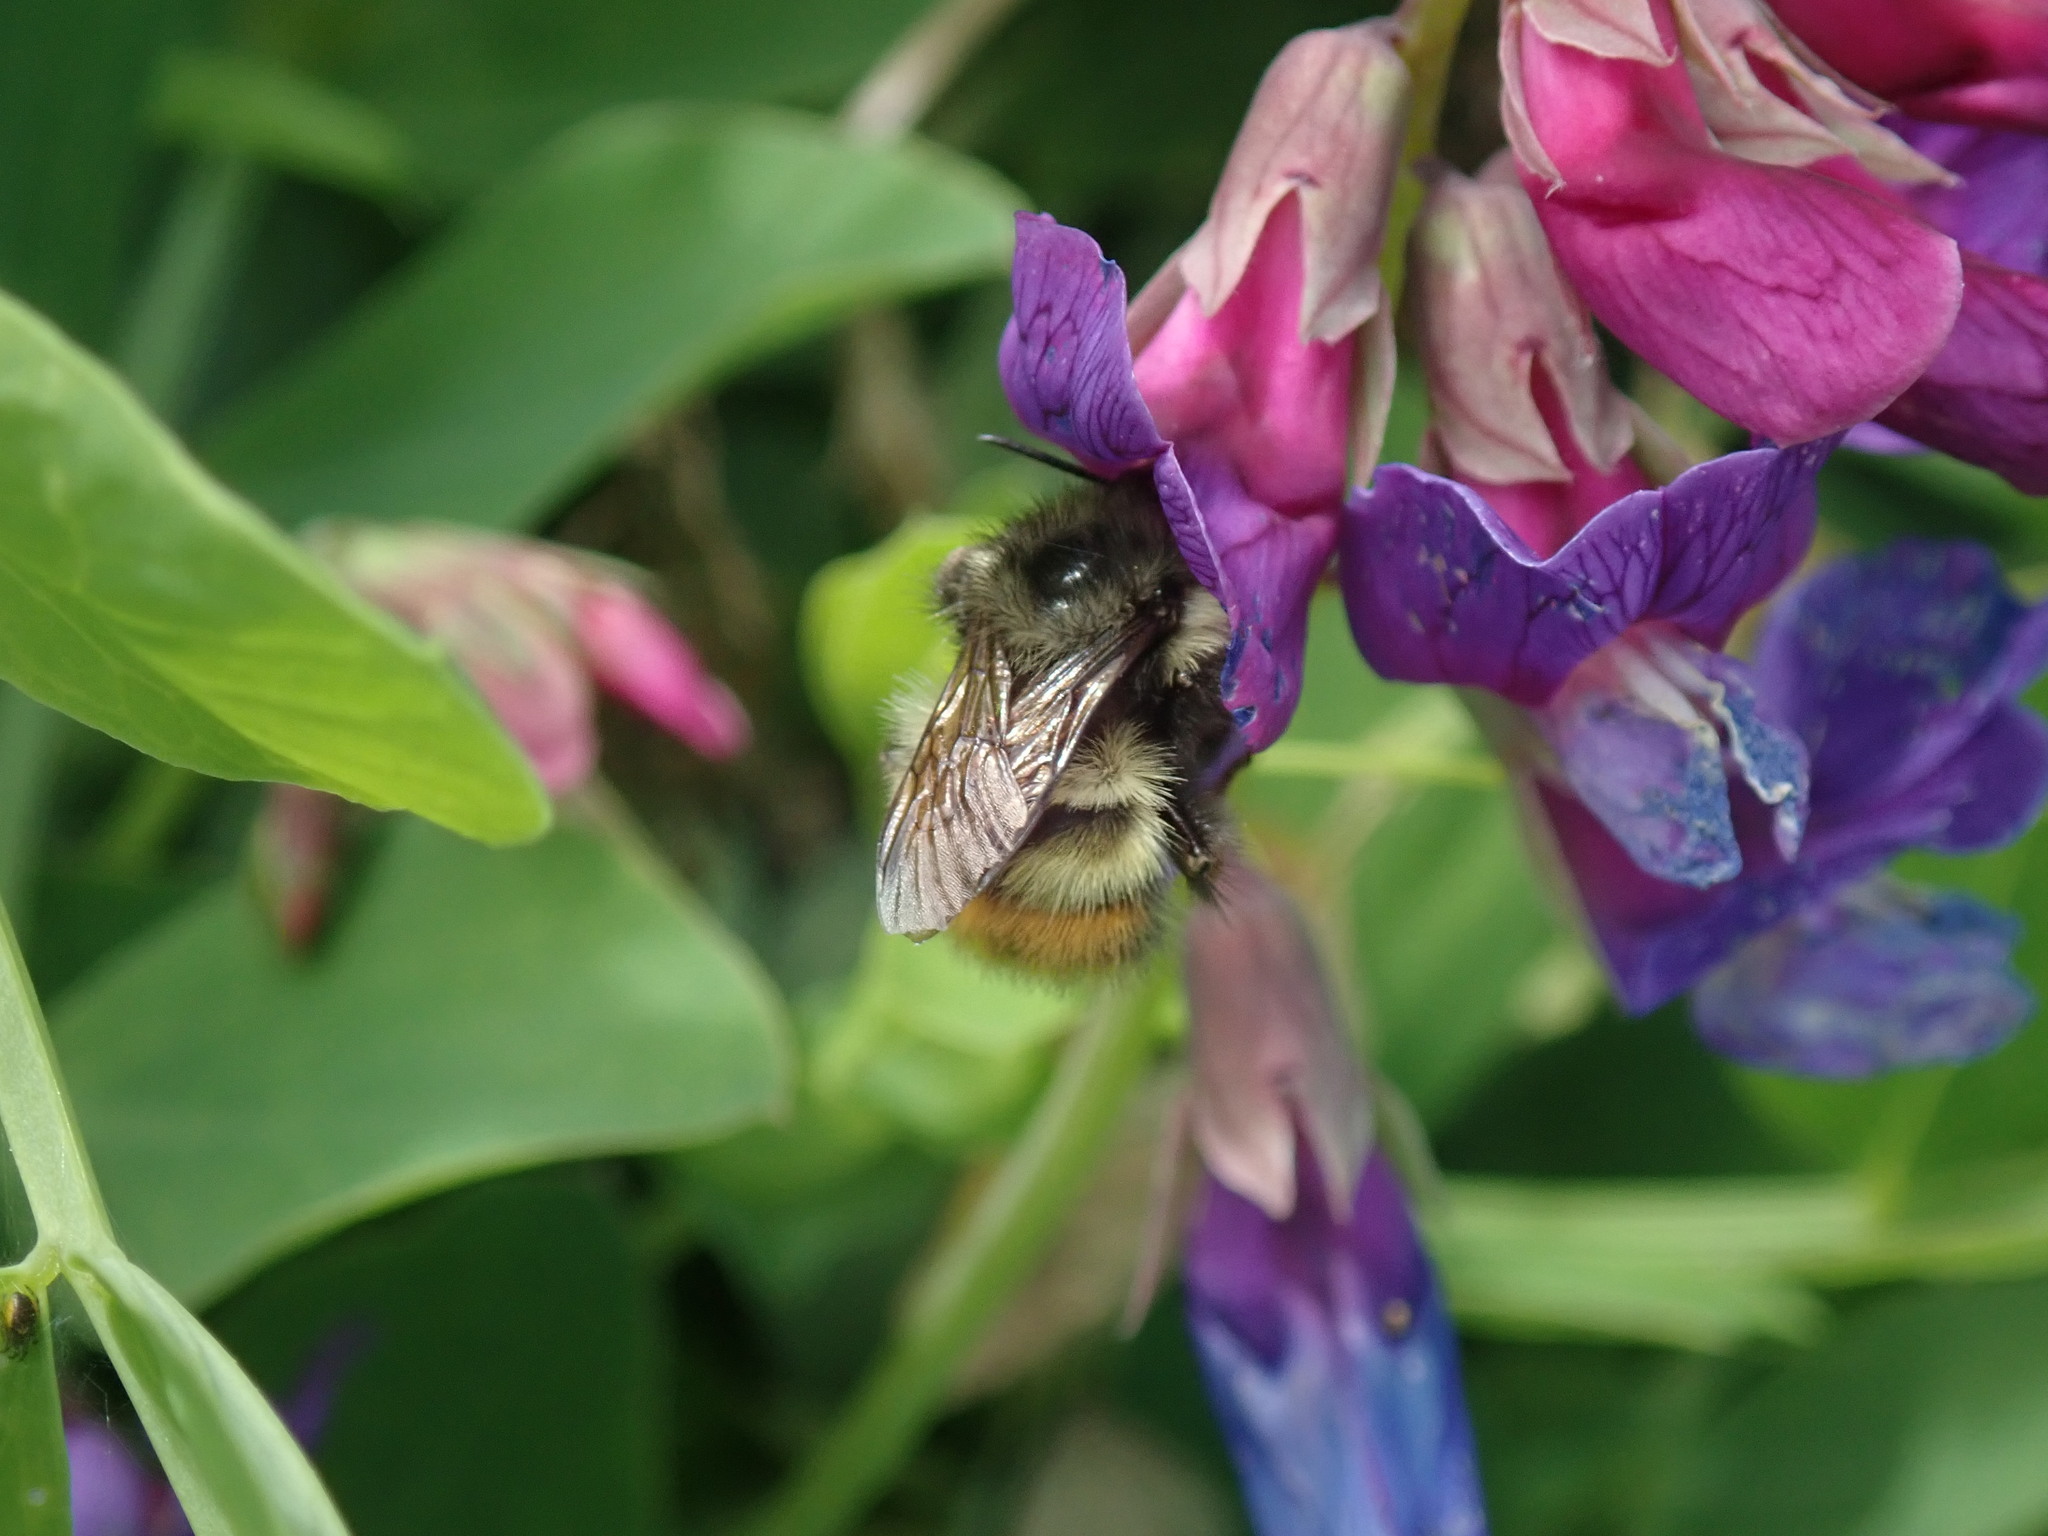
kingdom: Animalia
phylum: Arthropoda
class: Insecta
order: Hymenoptera
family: Apidae
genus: Bombus
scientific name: Bombus flavifrons
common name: Yellow head bumble bee
